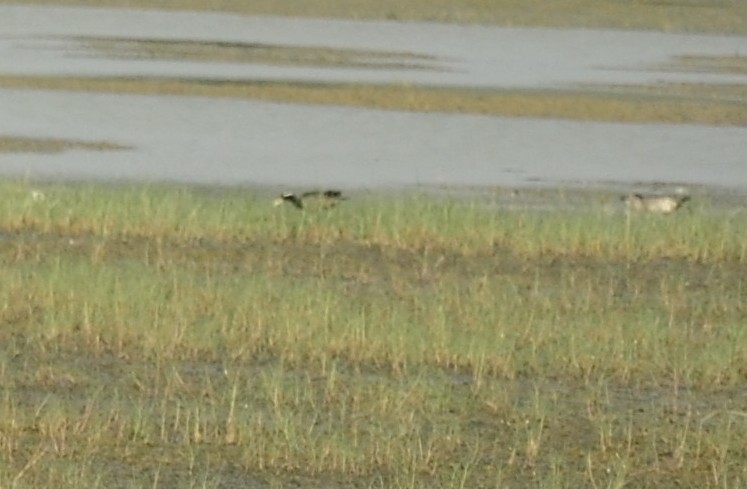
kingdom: Animalia
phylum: Chordata
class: Aves
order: Charadriiformes
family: Jacanidae
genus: Metopidius
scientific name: Metopidius indicus
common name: Bronze-winged jacana
